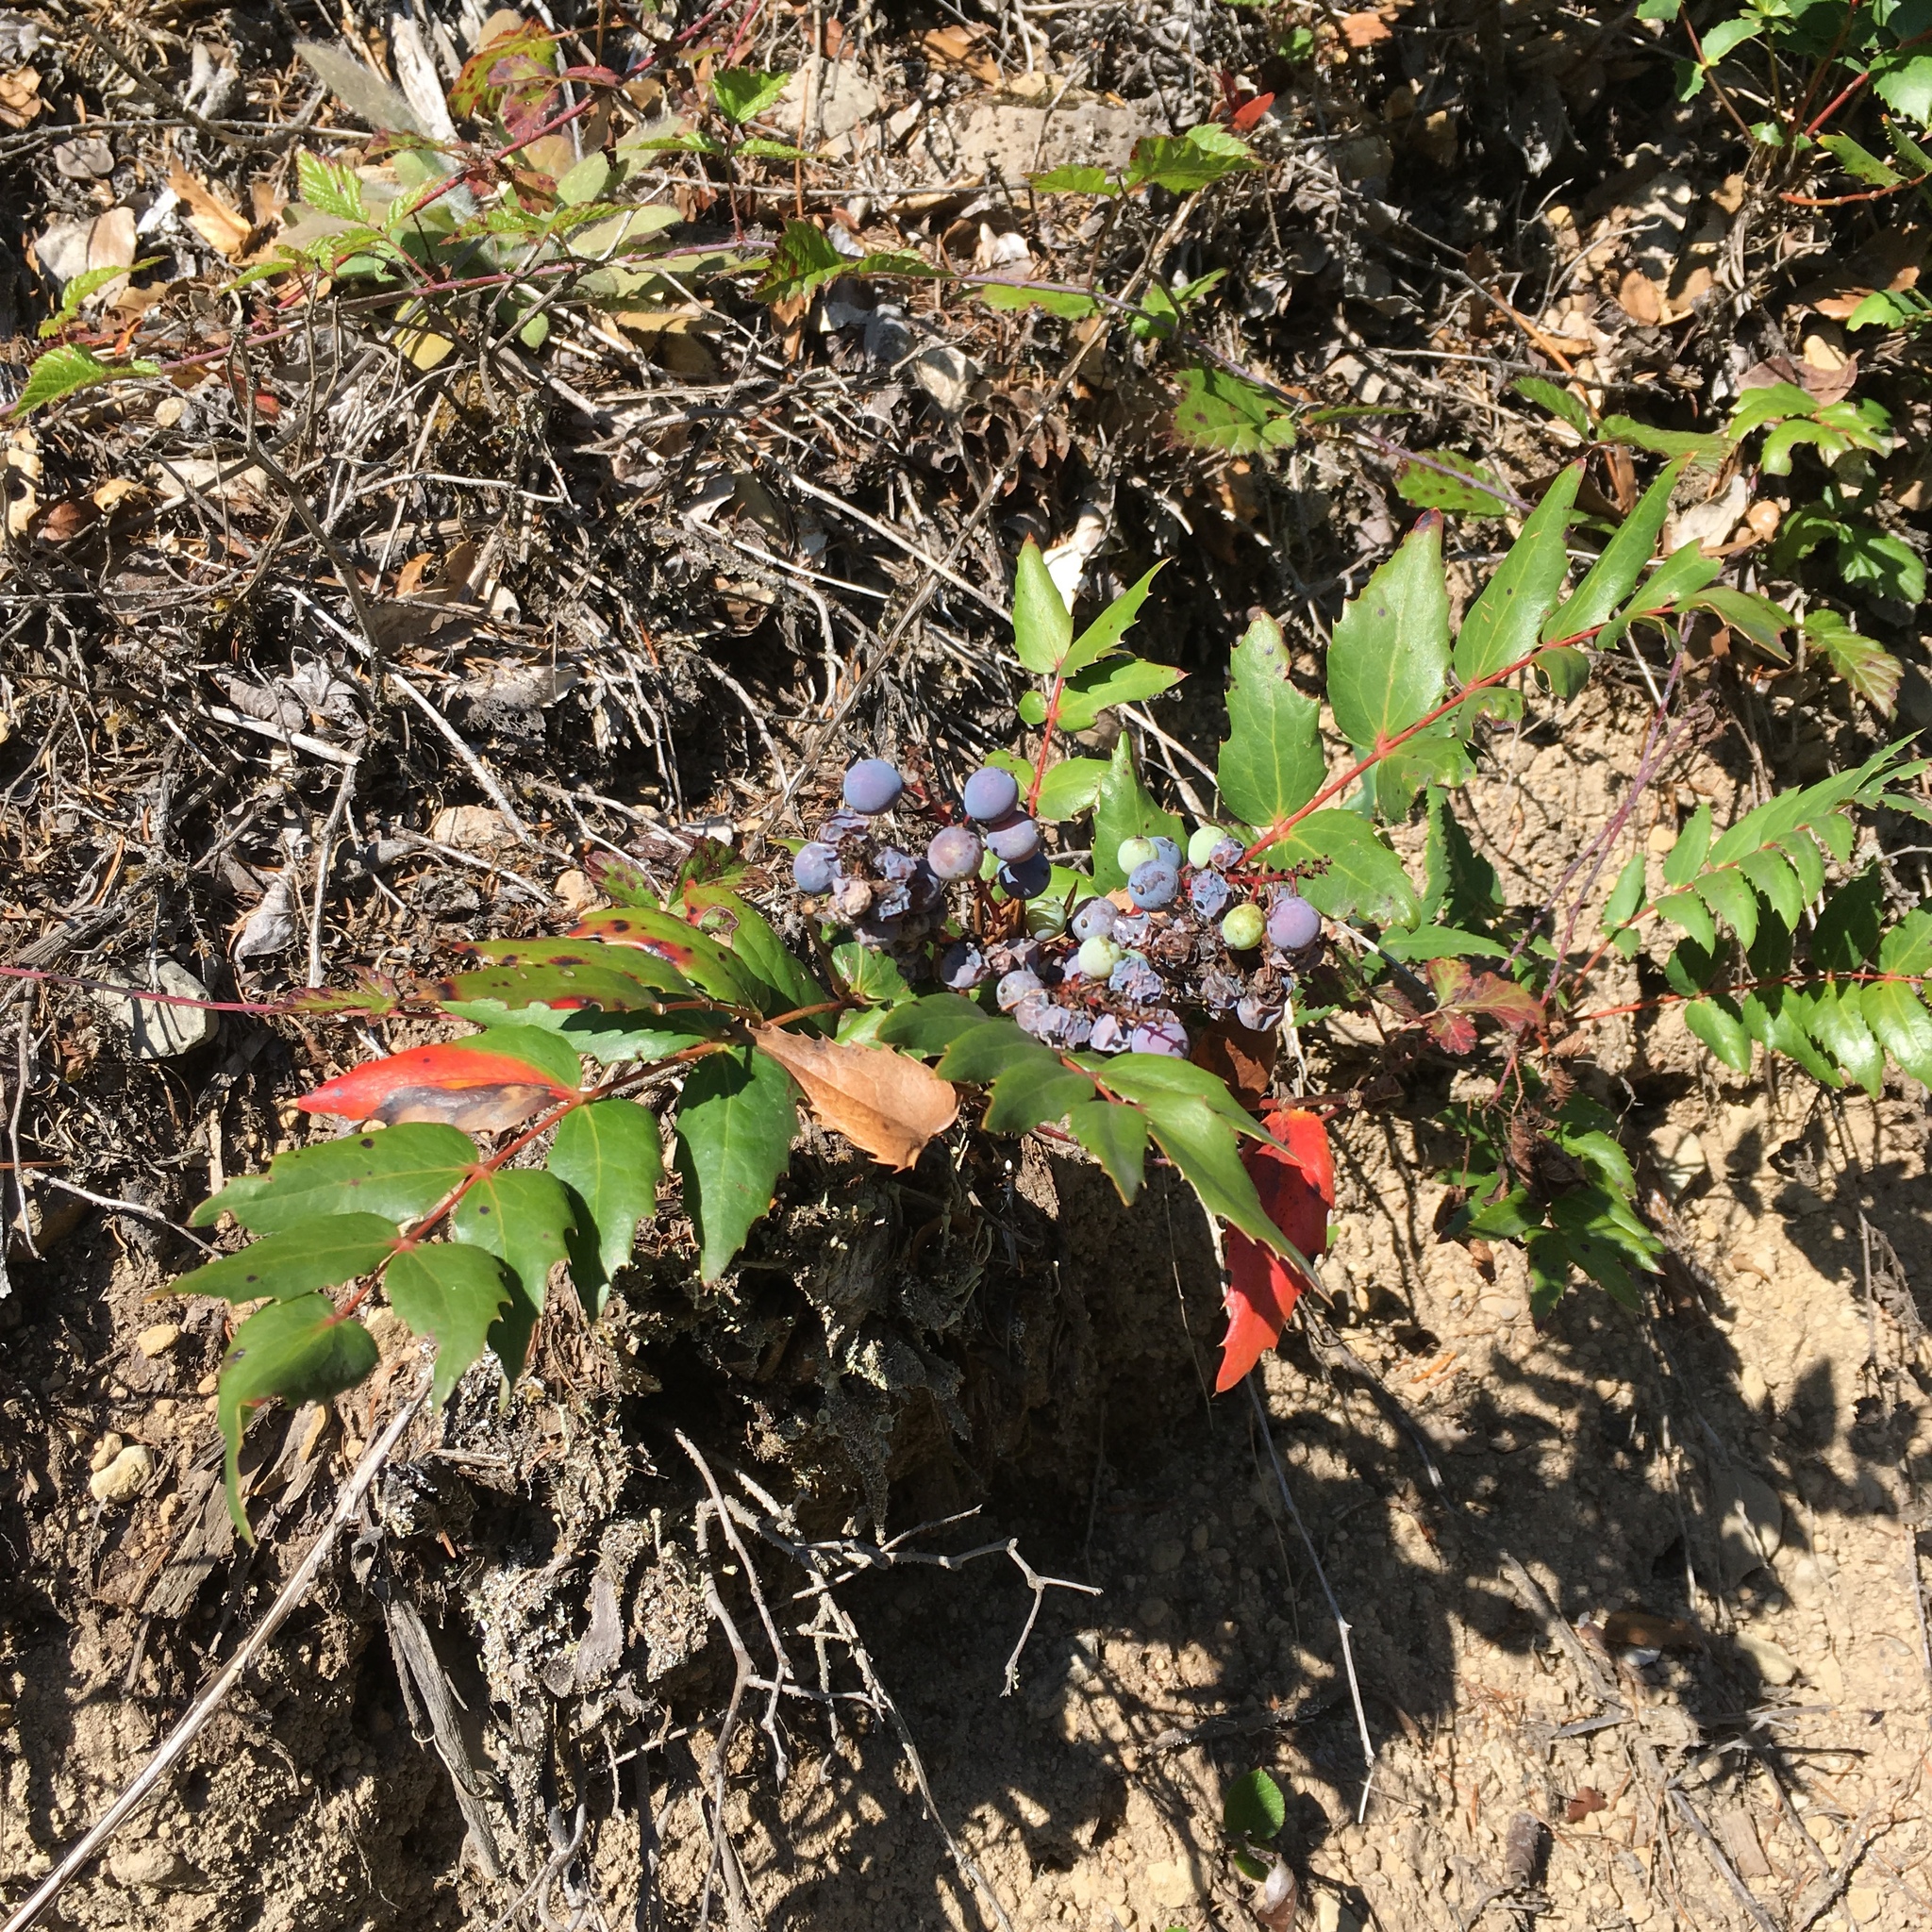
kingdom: Plantae
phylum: Tracheophyta
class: Magnoliopsida
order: Ranunculales
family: Berberidaceae
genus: Mahonia
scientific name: Mahonia nervosa
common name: Cascade oregon-grape
